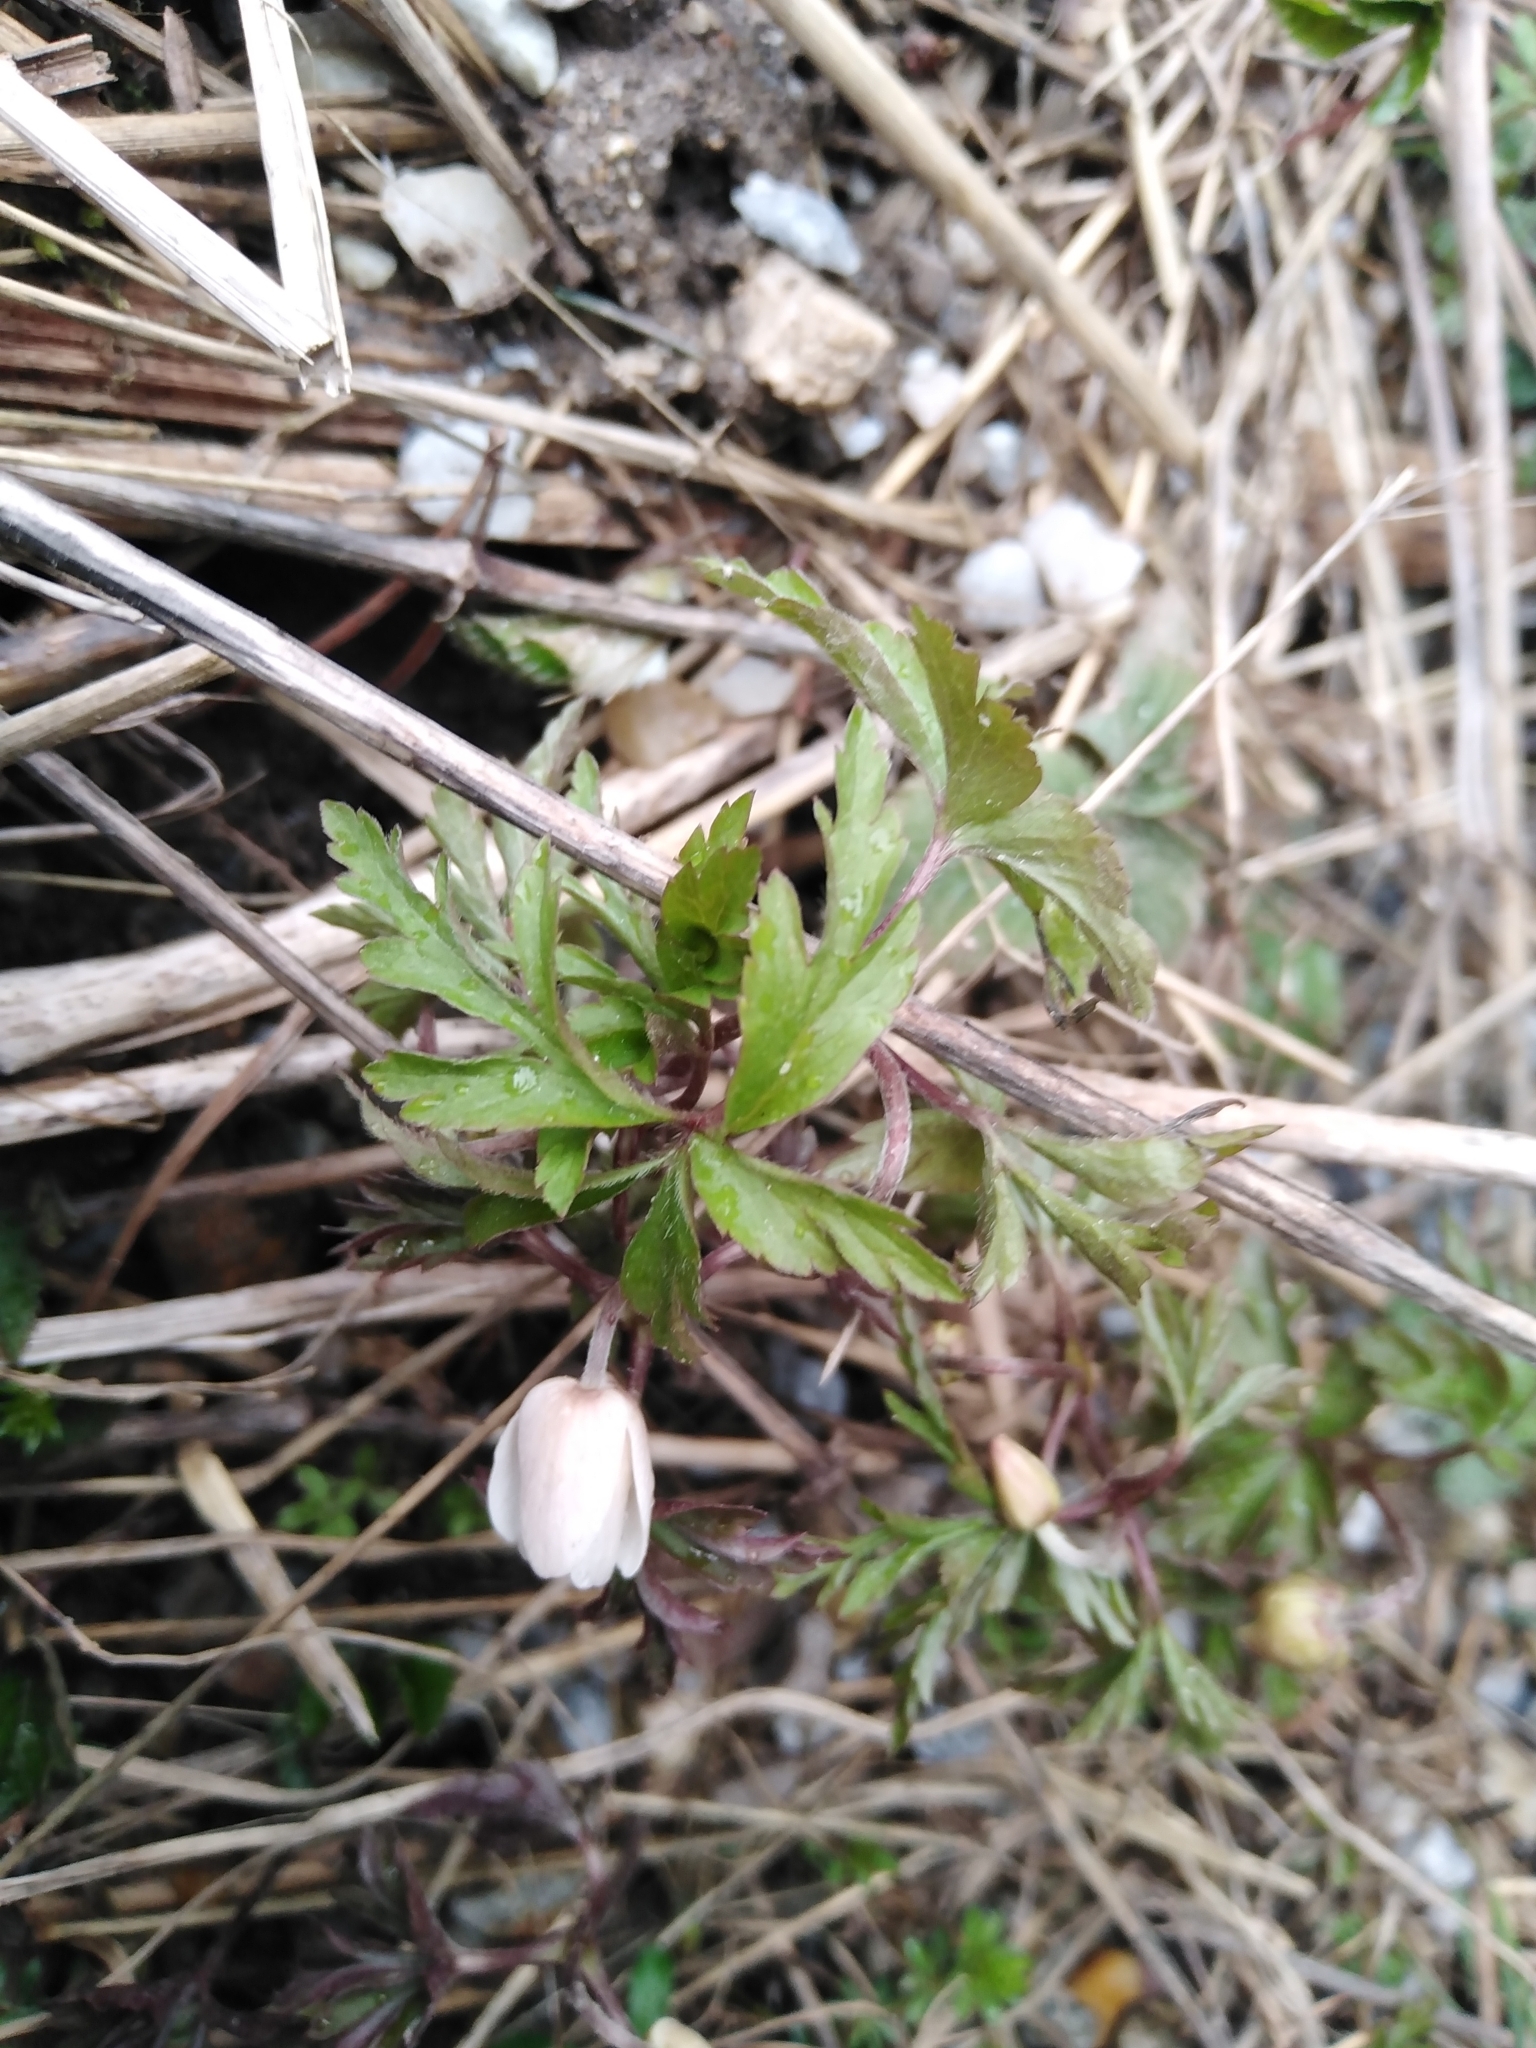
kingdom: Plantae
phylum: Tracheophyta
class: Magnoliopsida
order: Ranunculales
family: Ranunculaceae
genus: Anemone
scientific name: Anemone nemorosa
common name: Wood anemone
